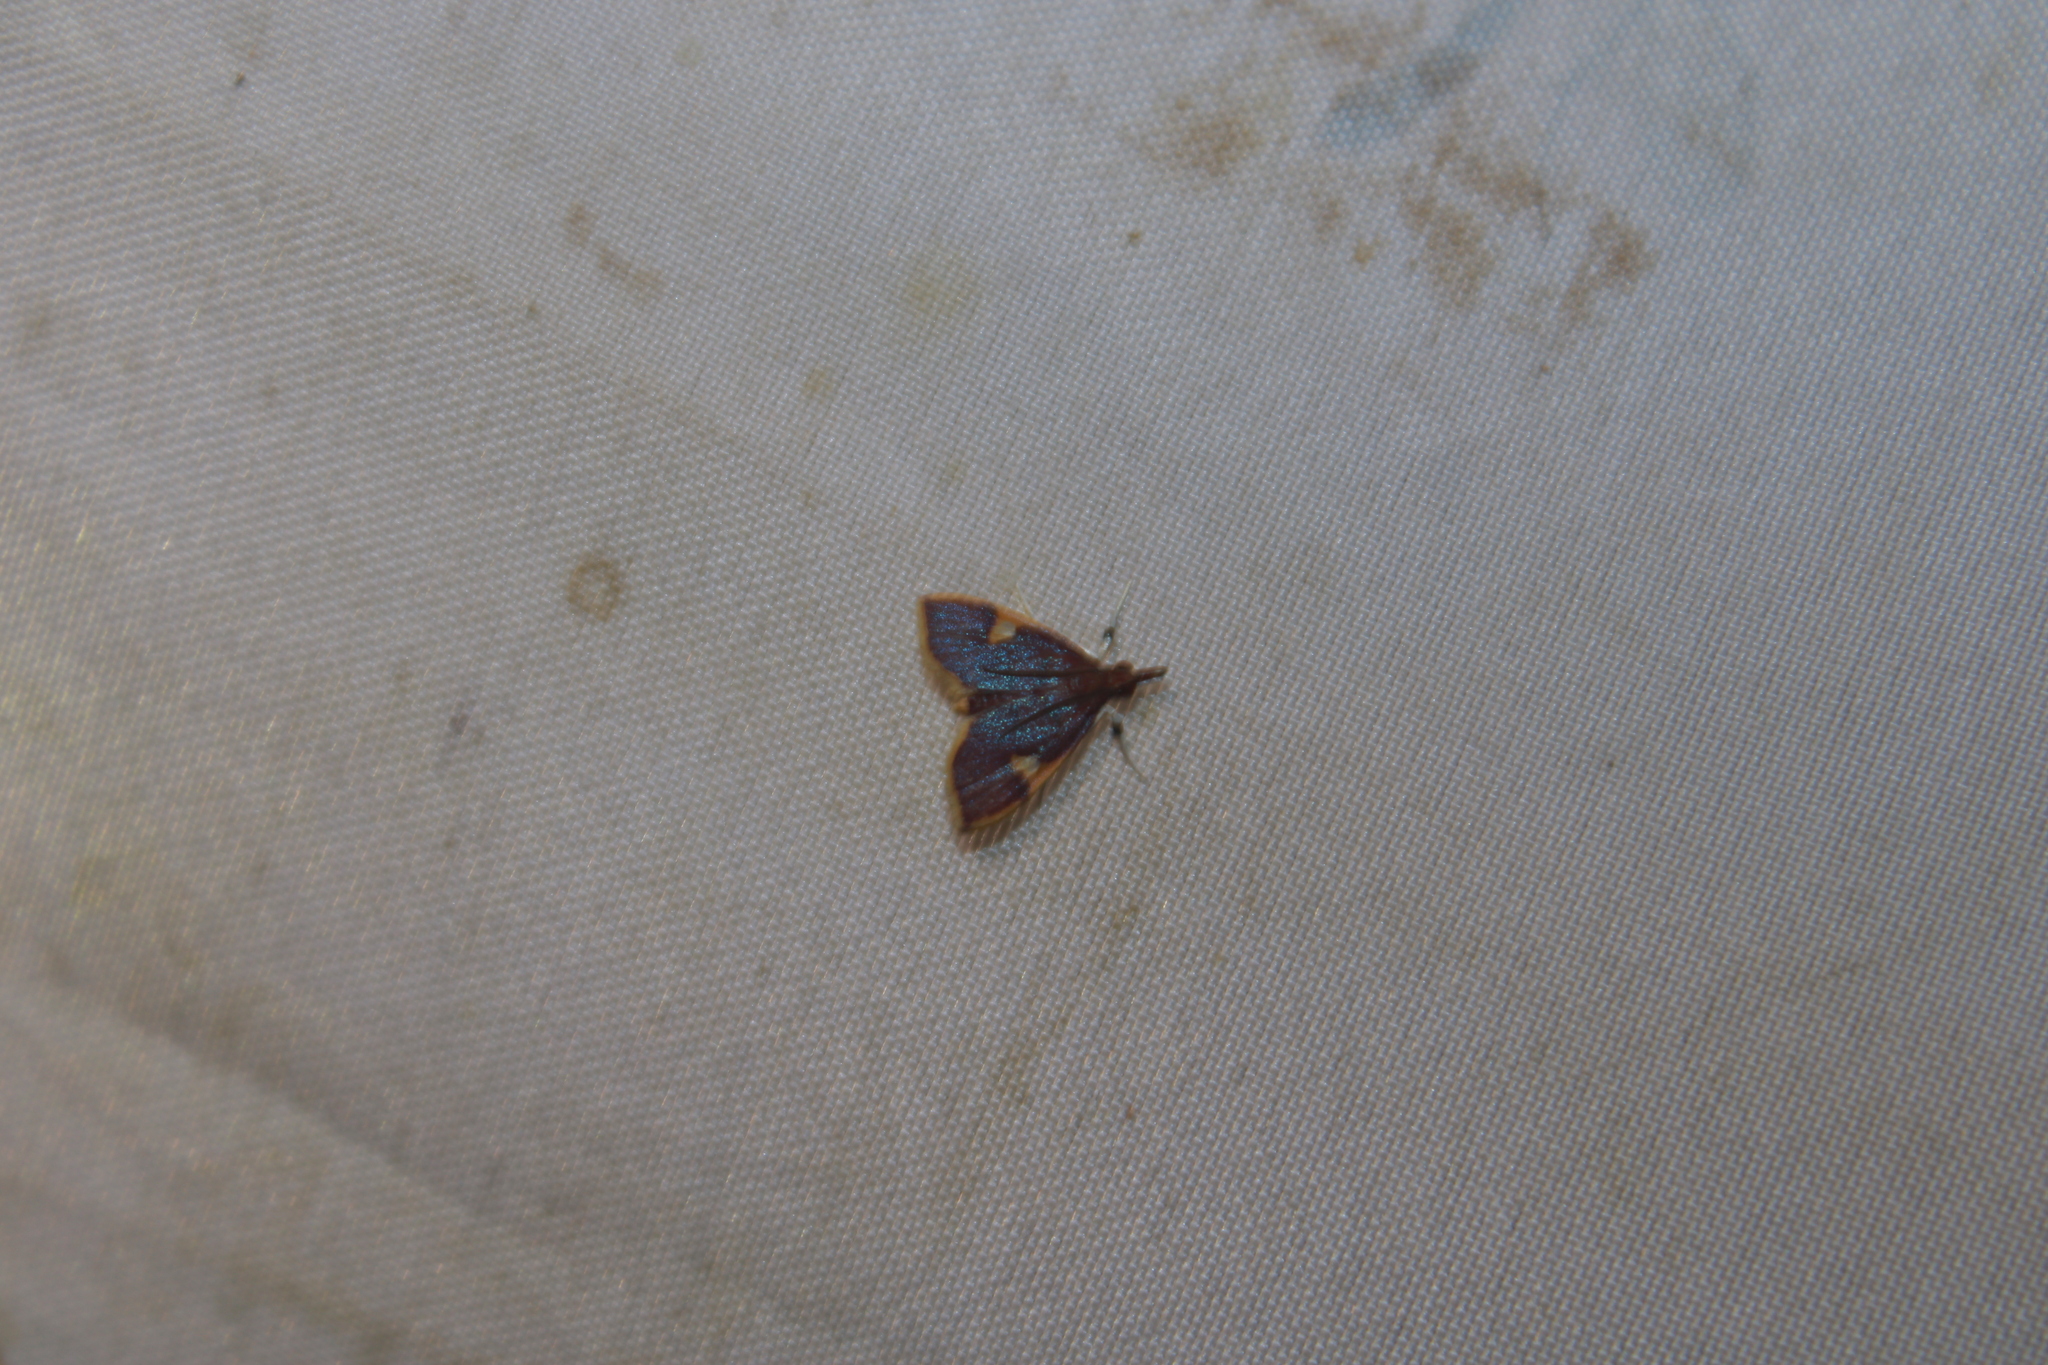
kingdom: Animalia
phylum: Arthropoda
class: Insecta
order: Lepidoptera
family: Crambidae
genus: Deuterophysa
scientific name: Deuterophysa fernaldi
